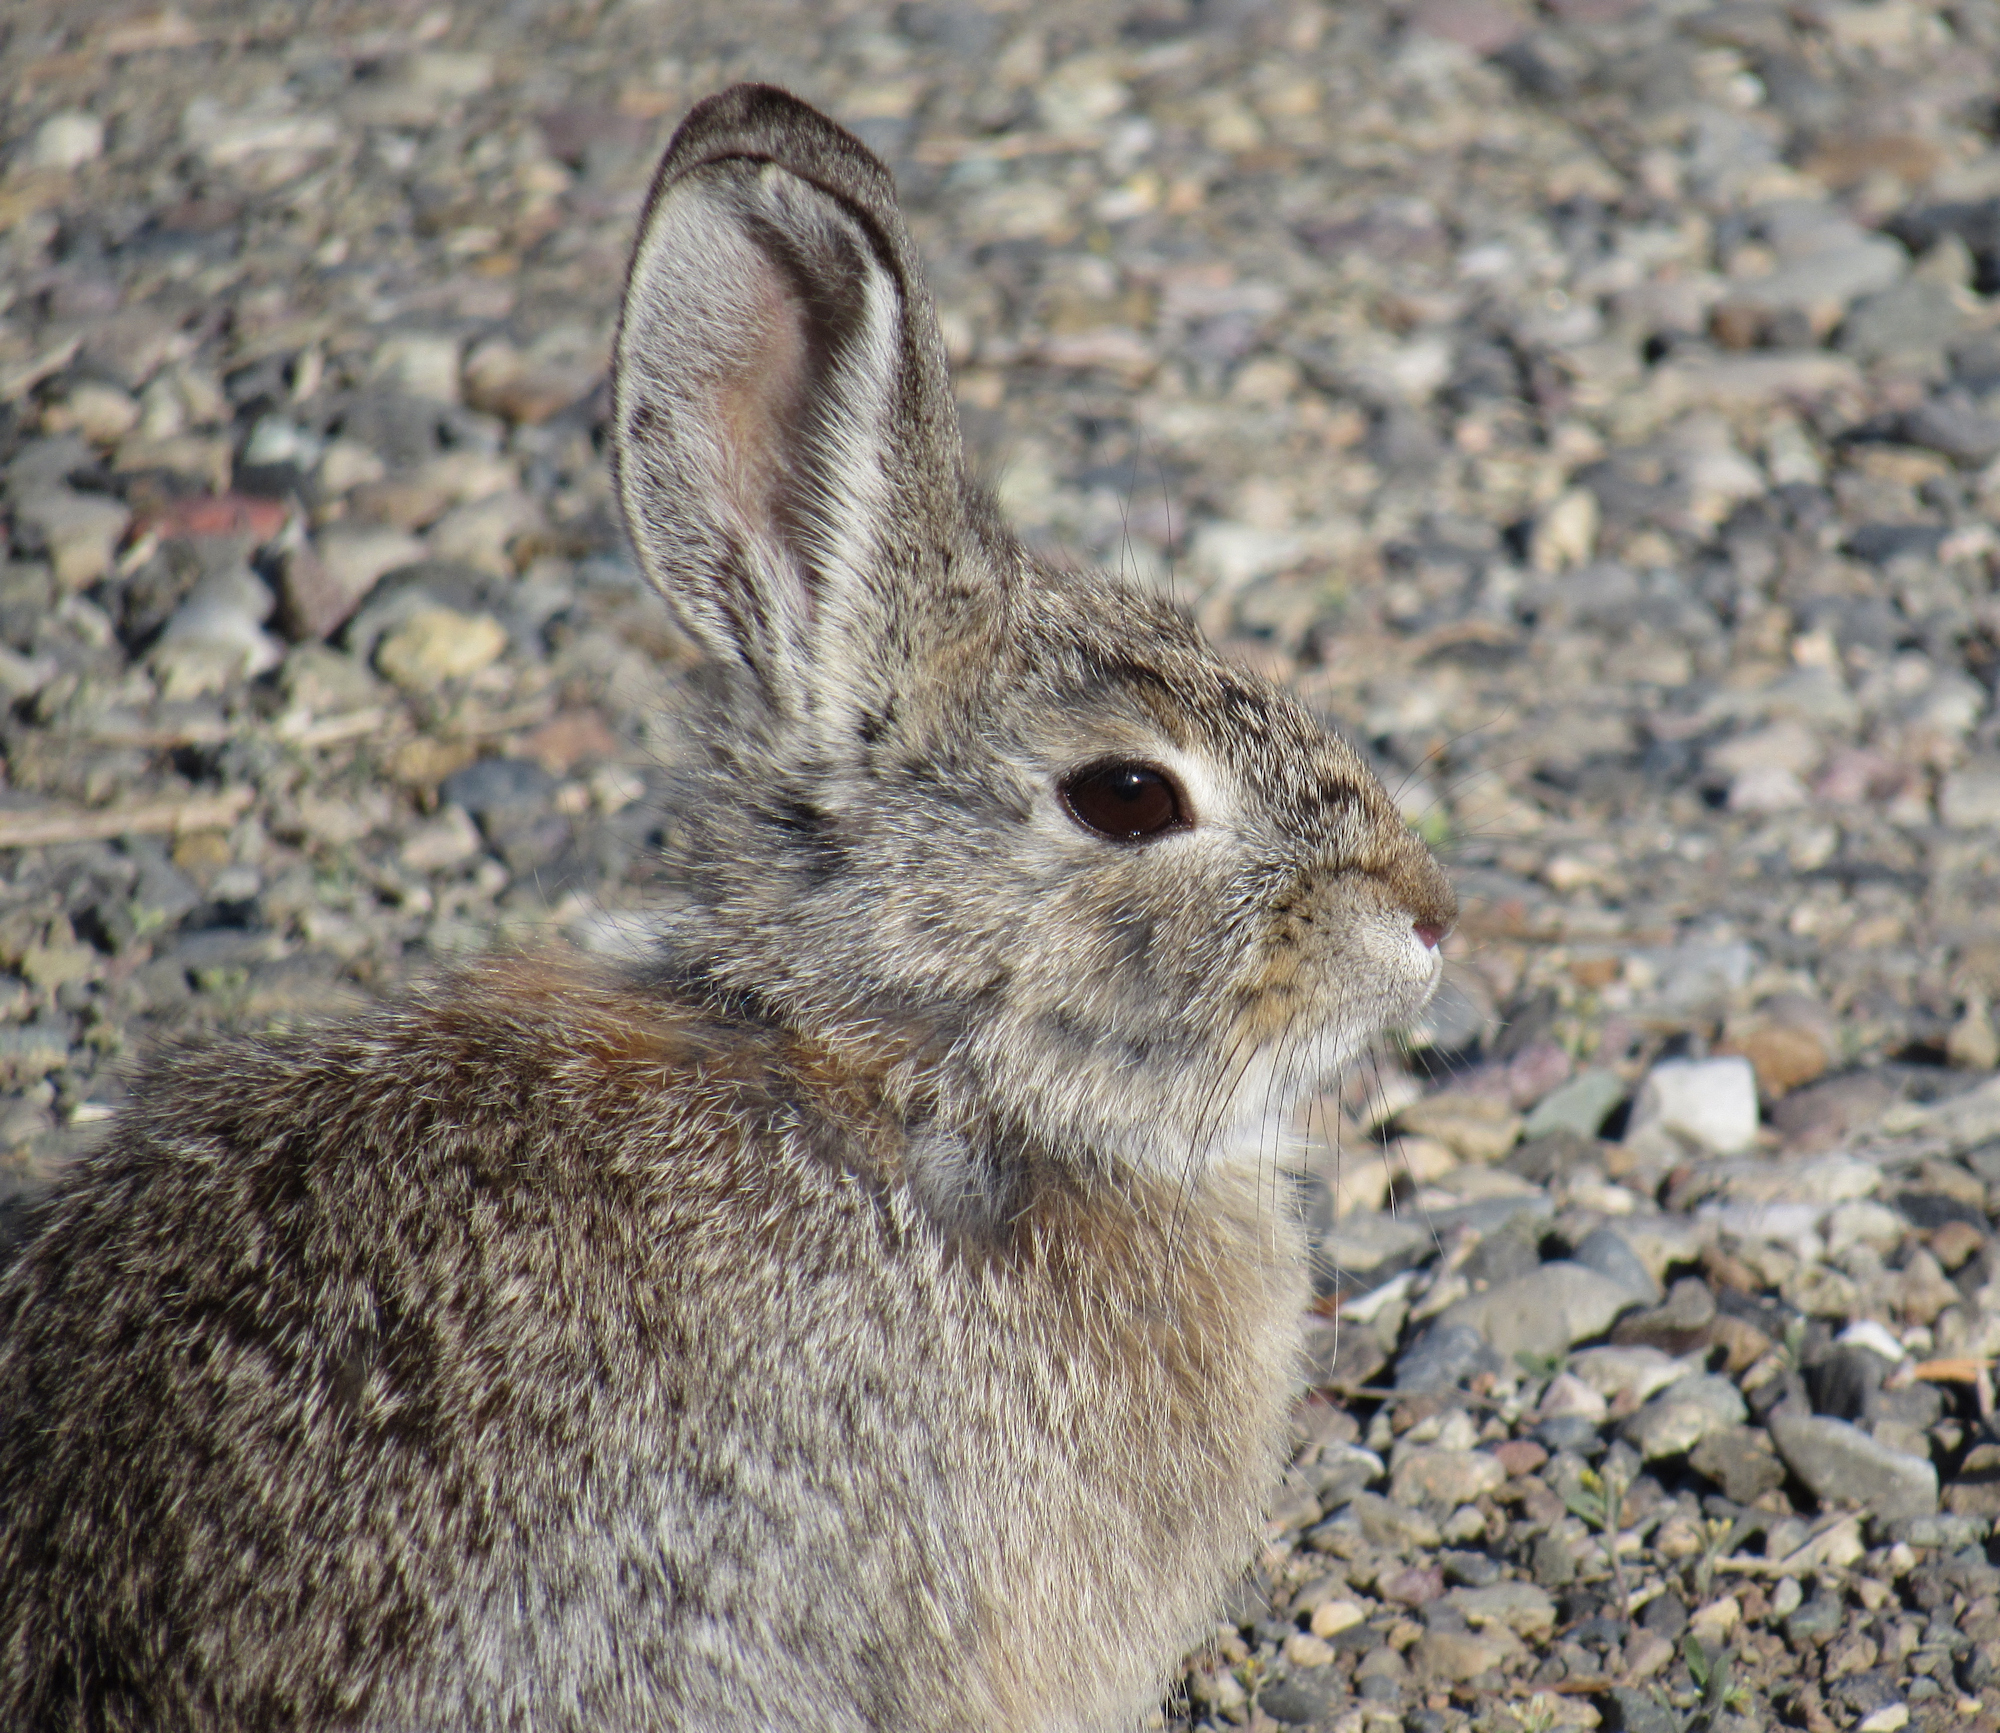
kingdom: Animalia
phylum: Chordata
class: Mammalia
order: Lagomorpha
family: Leporidae
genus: Sylvilagus
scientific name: Sylvilagus nuttallii
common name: Mountain cottontail
